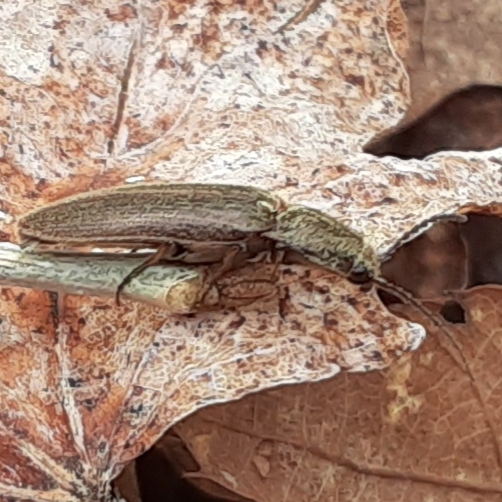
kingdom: Animalia
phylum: Arthropoda
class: Insecta
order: Coleoptera
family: Elateridae
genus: Sylvanelater
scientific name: Sylvanelater cylindriformis
